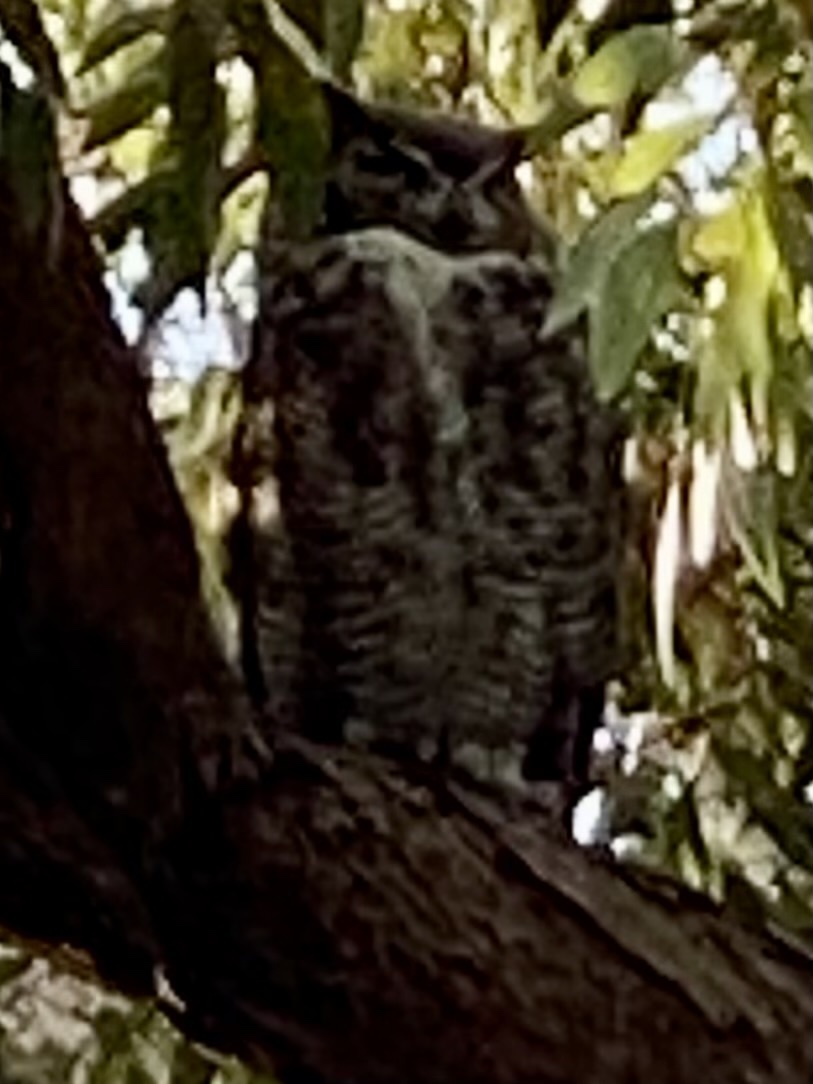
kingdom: Animalia
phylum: Chordata
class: Aves
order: Strigiformes
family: Strigidae
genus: Bubo
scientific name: Bubo virginianus
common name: Great horned owl
